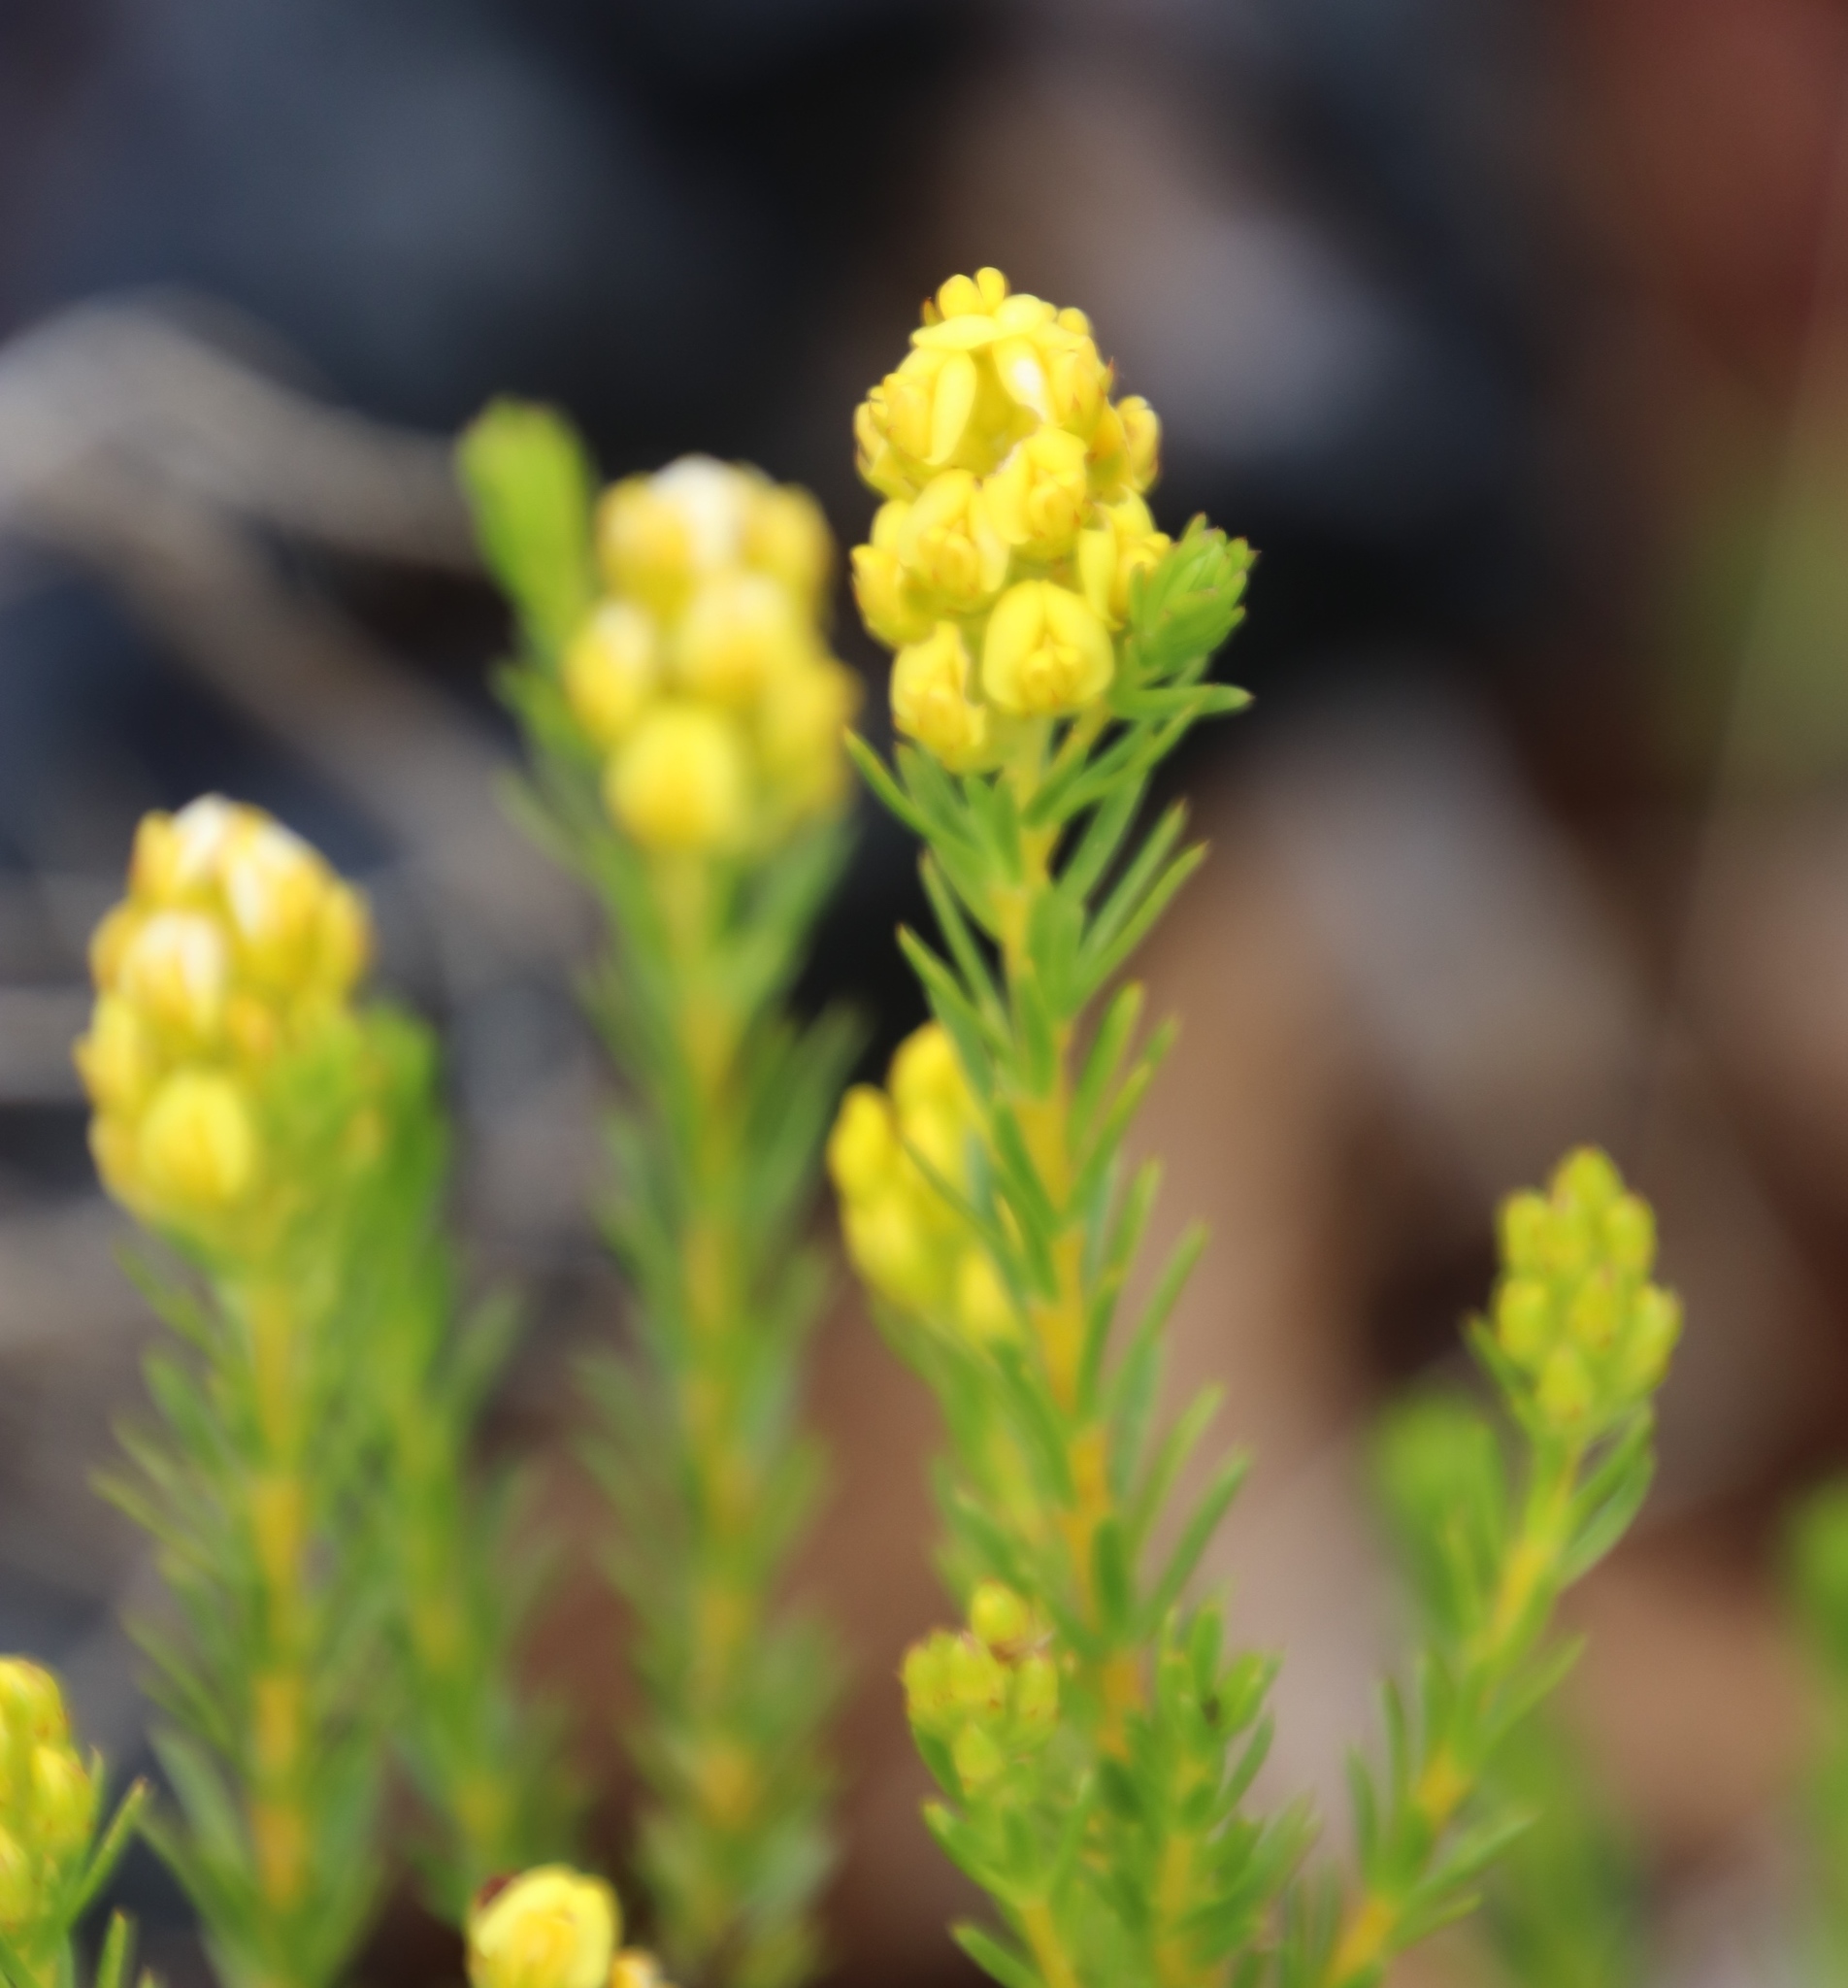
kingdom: Plantae
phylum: Tracheophyta
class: Magnoliopsida
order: Fabales
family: Fabaceae
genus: Aspalathus
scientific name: Aspalathus callosa
